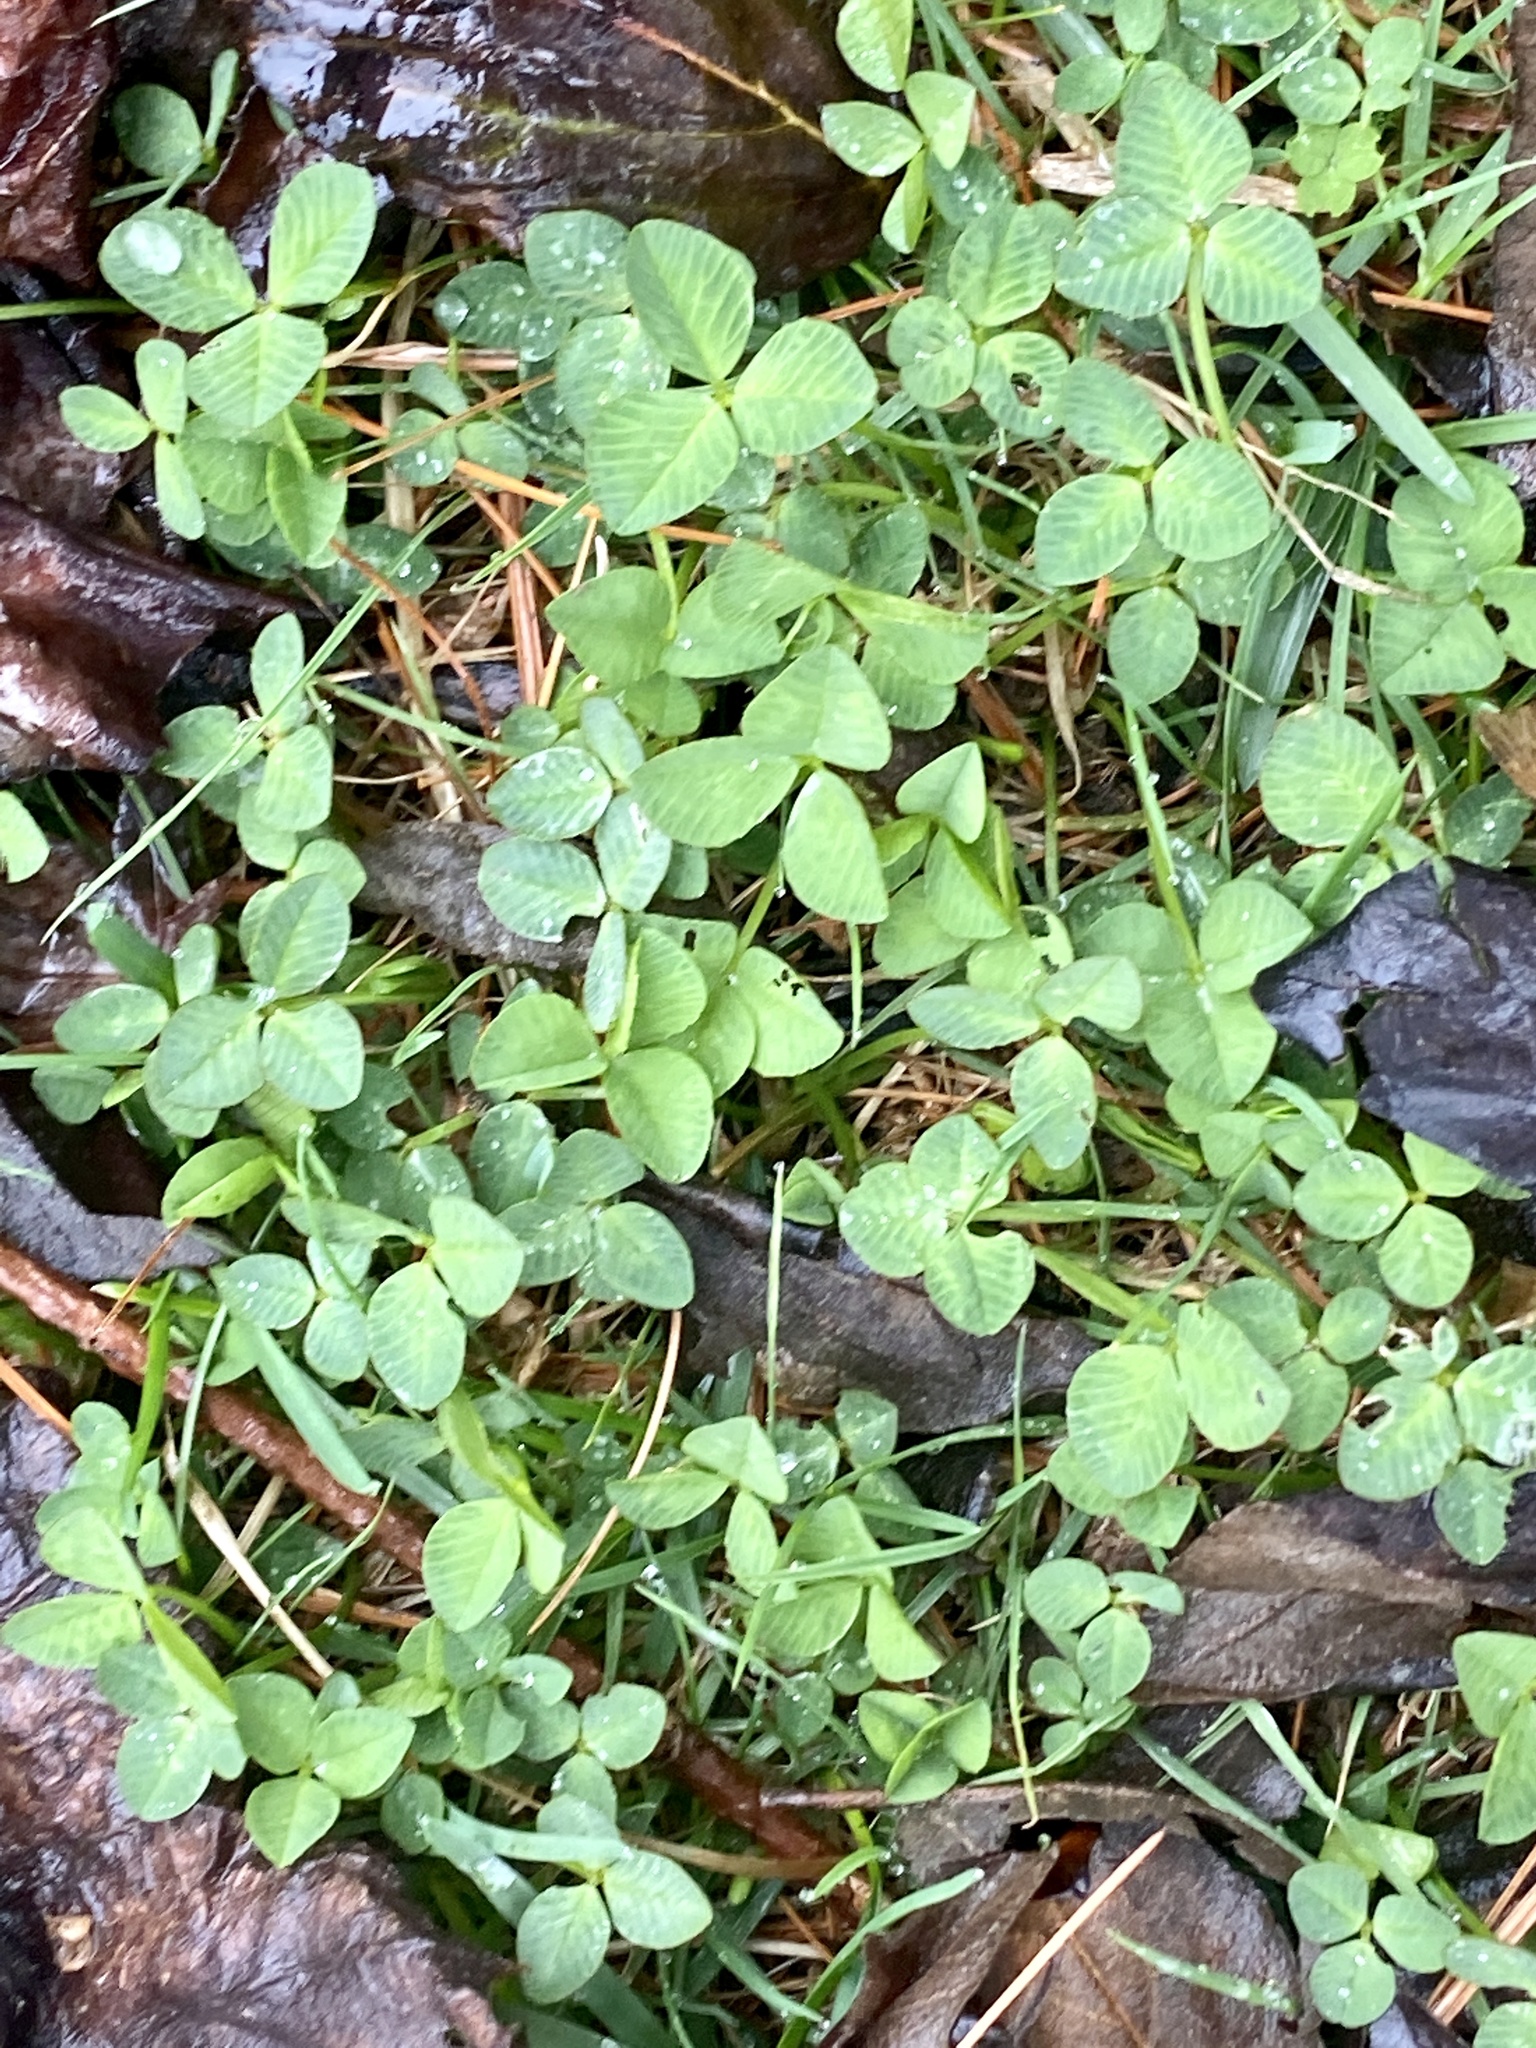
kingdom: Plantae
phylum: Tracheophyta
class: Magnoliopsida
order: Fabales
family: Fabaceae
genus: Trifolium
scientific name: Trifolium repens
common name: White clover
